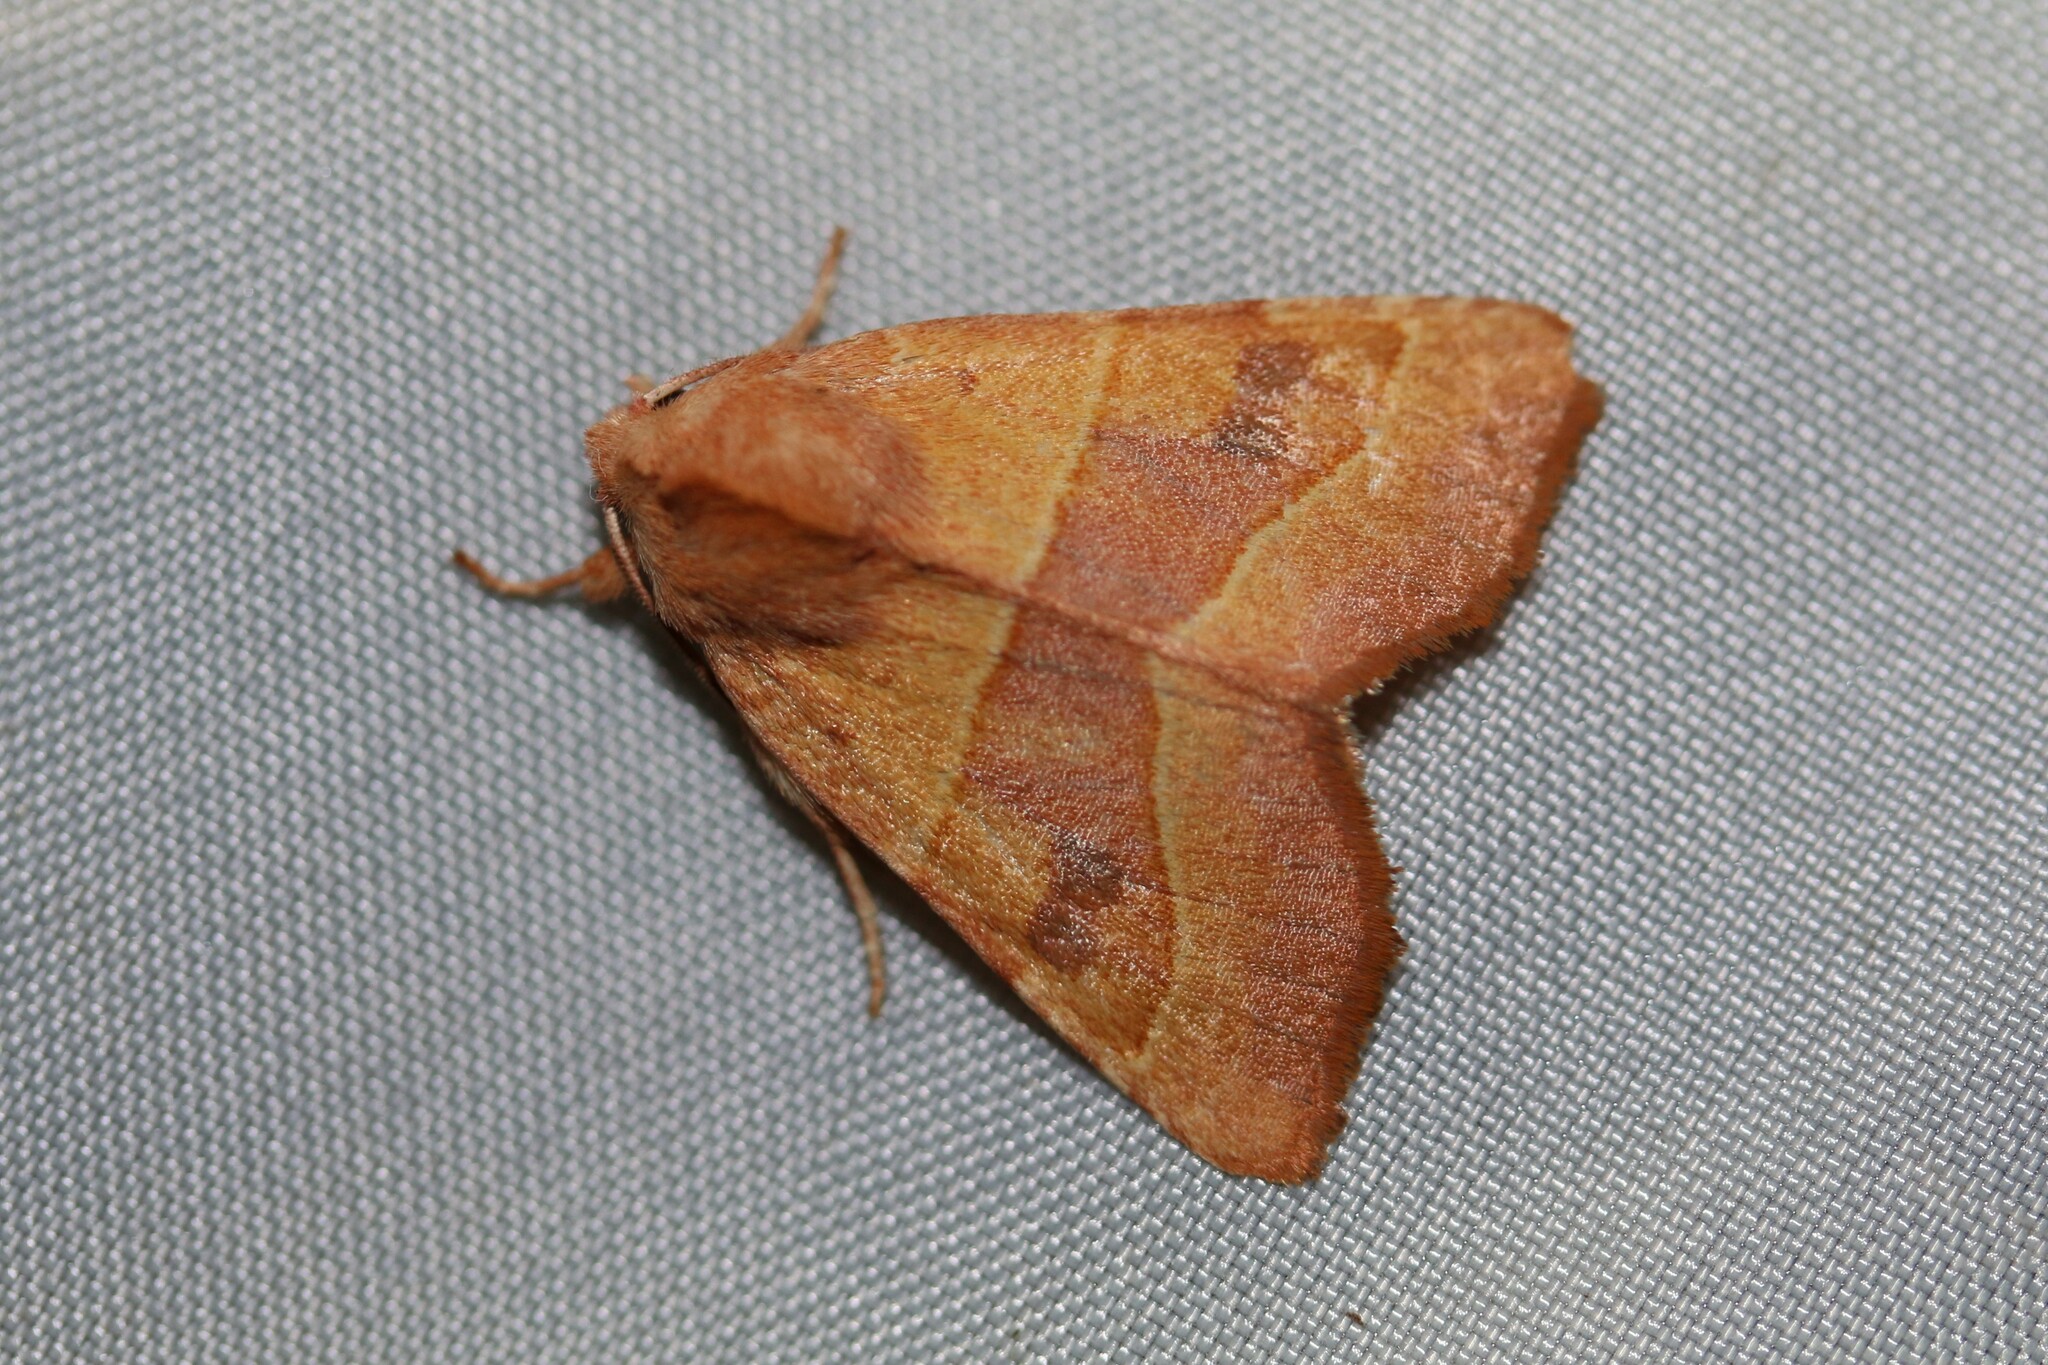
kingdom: Animalia
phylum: Arthropoda
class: Insecta
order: Lepidoptera
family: Noctuidae
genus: Atethmia
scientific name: Atethmia centrago
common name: Centre-barred sallow
